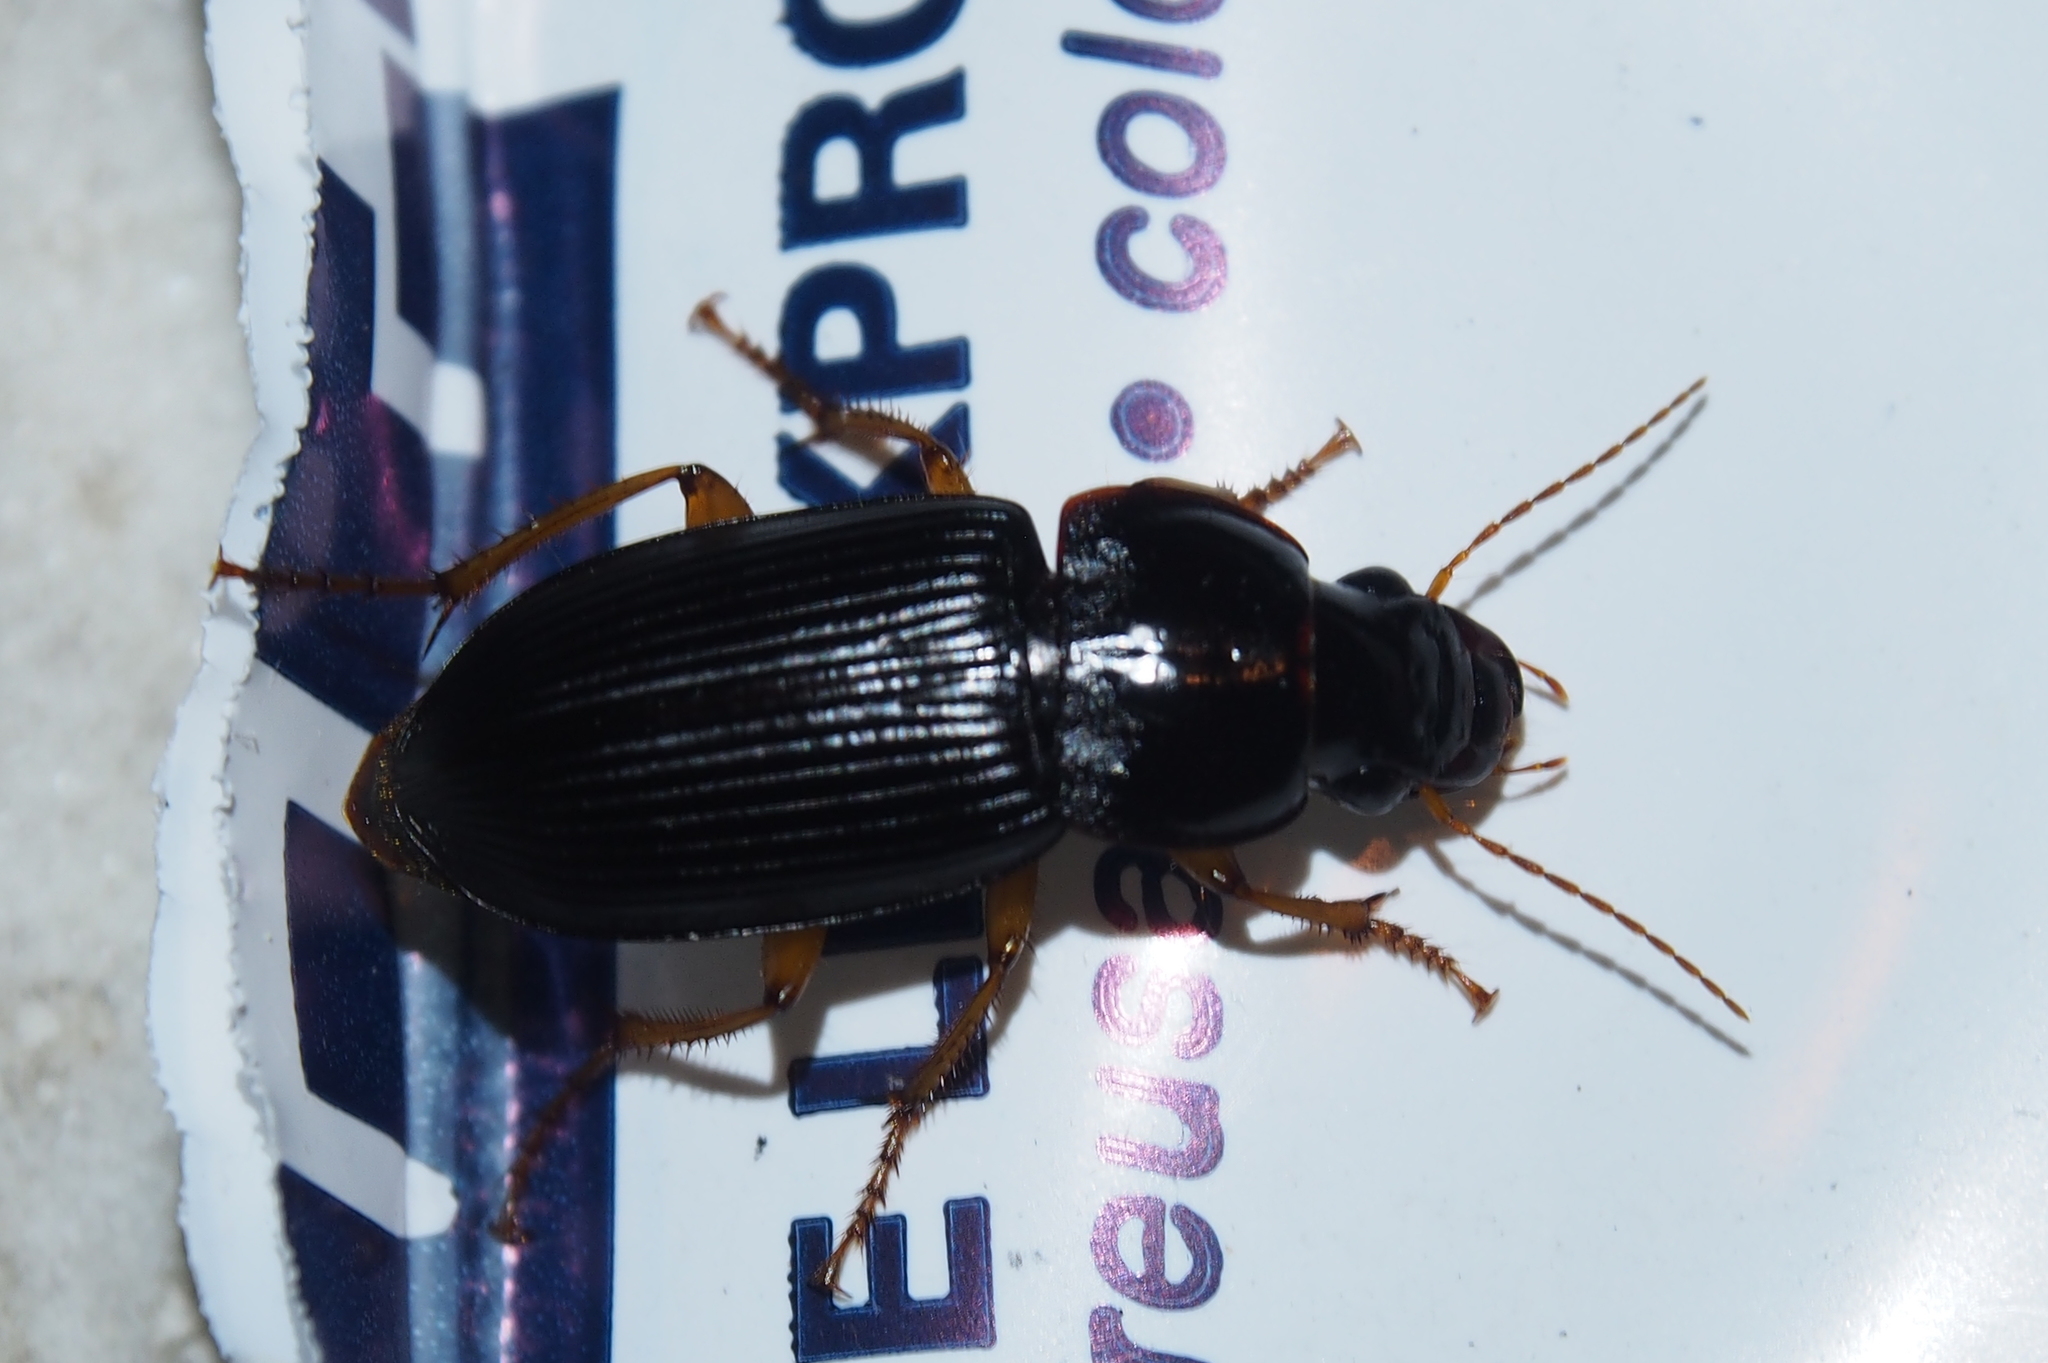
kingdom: Animalia
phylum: Arthropoda
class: Insecta
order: Coleoptera
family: Carabidae
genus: Harpalus
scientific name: Harpalus pensylvanicus
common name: Pennsylvania dingy ground beetle
